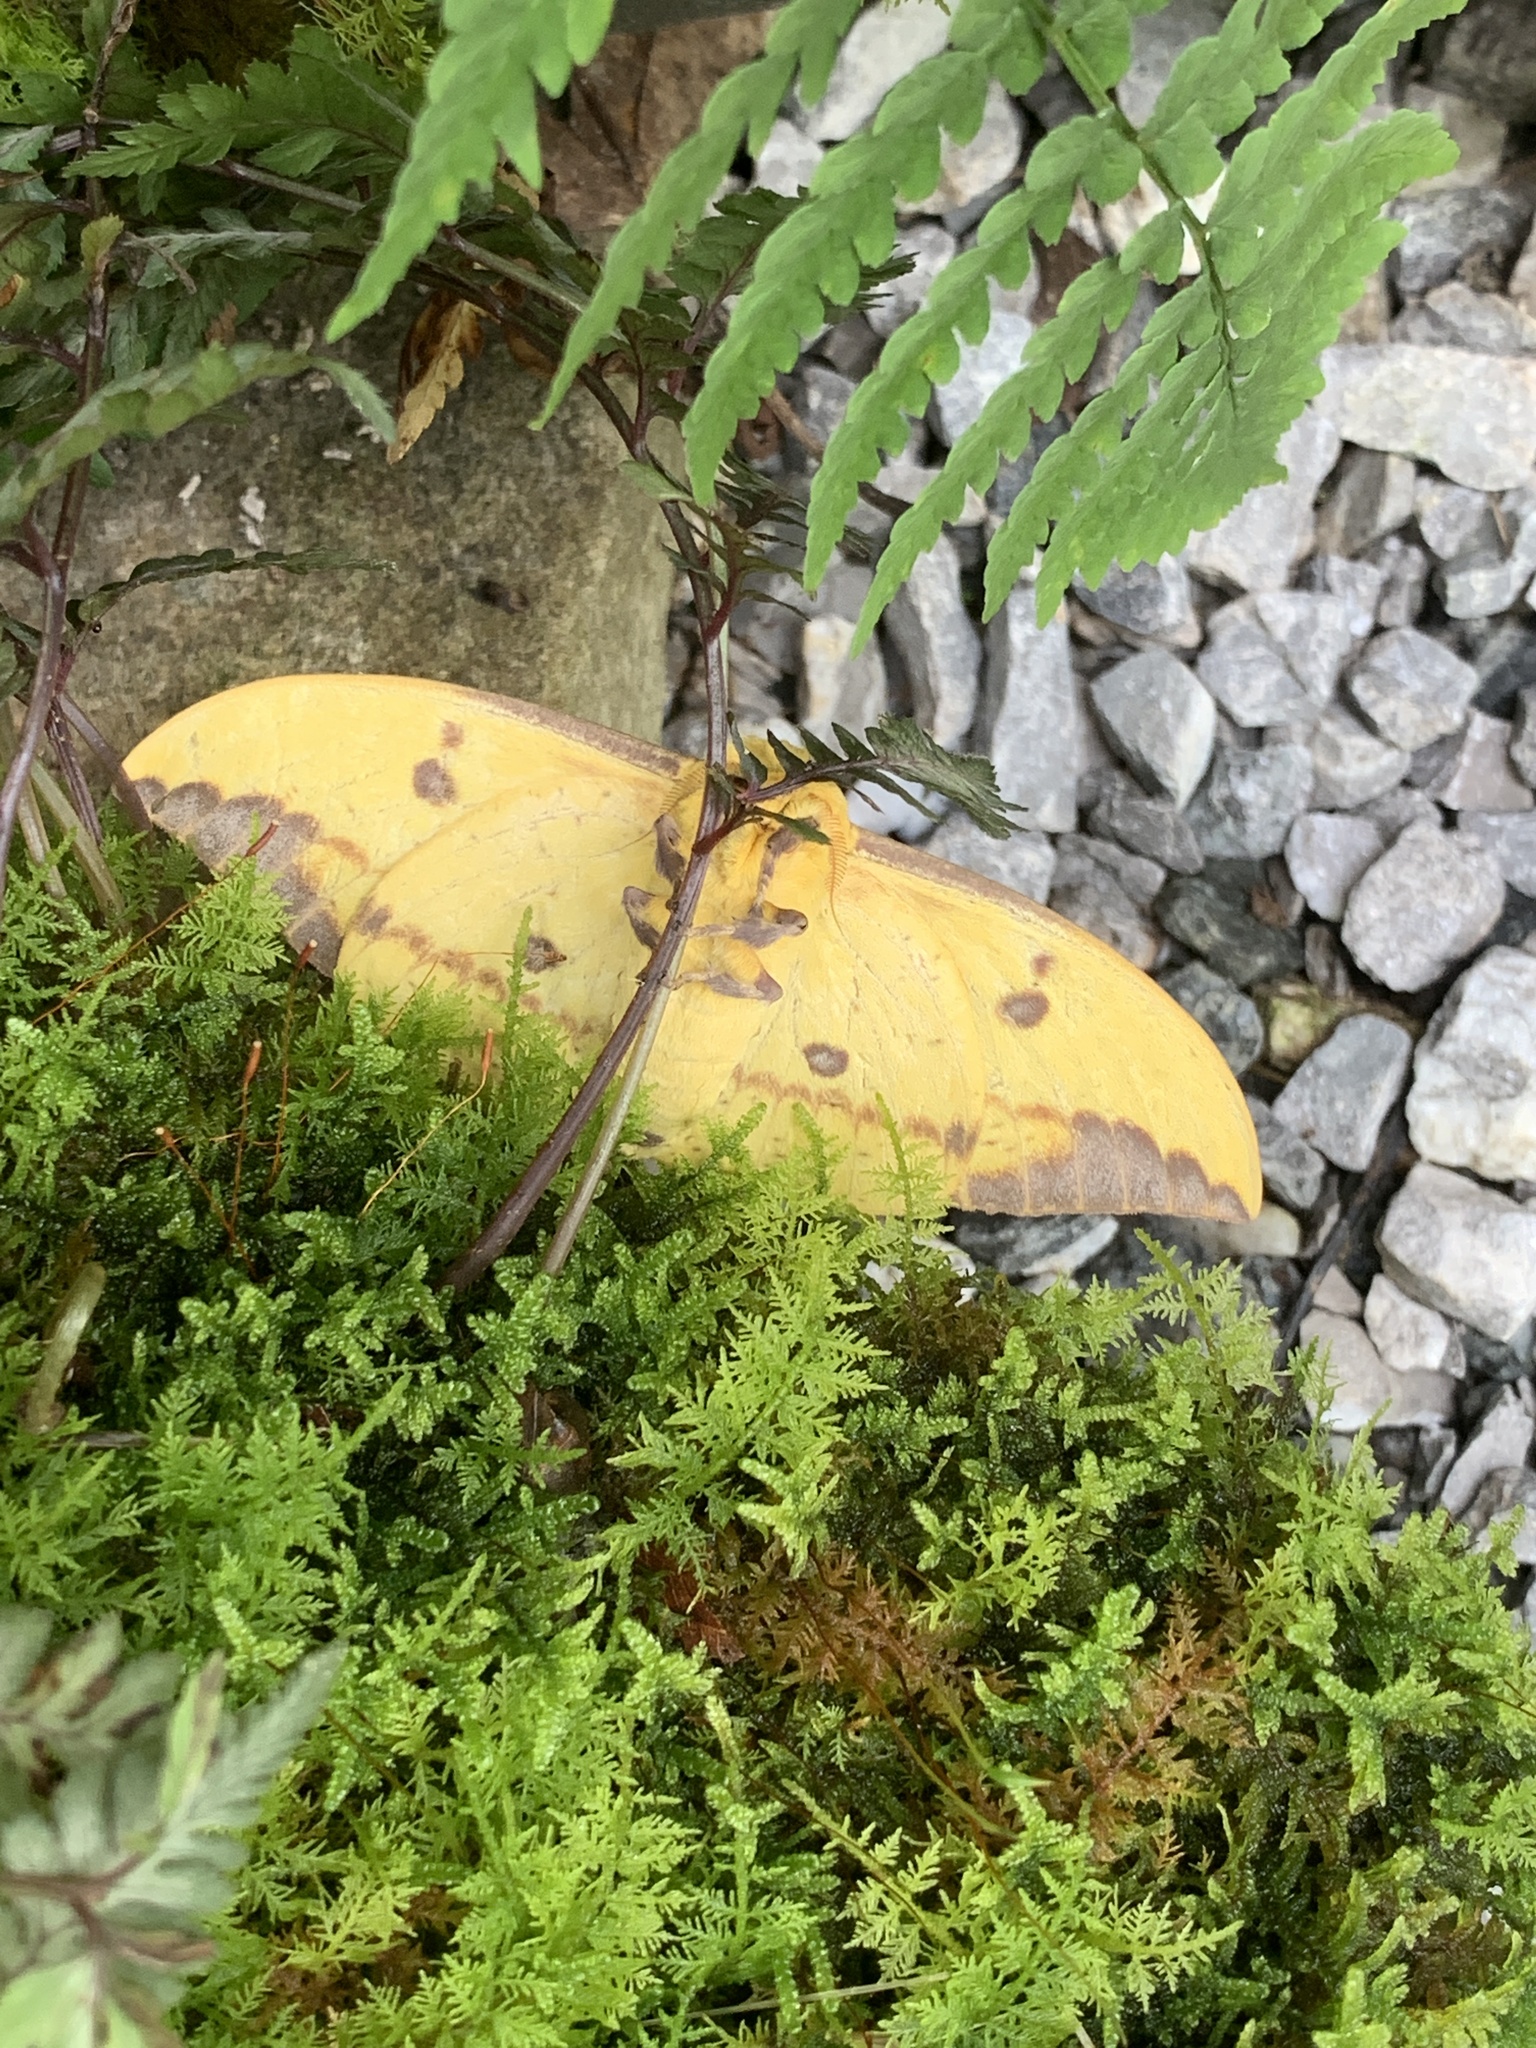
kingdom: Animalia
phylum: Arthropoda
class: Insecta
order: Lepidoptera
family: Saturniidae
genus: Eacles
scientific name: Eacles imperialis
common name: Imperial moth
